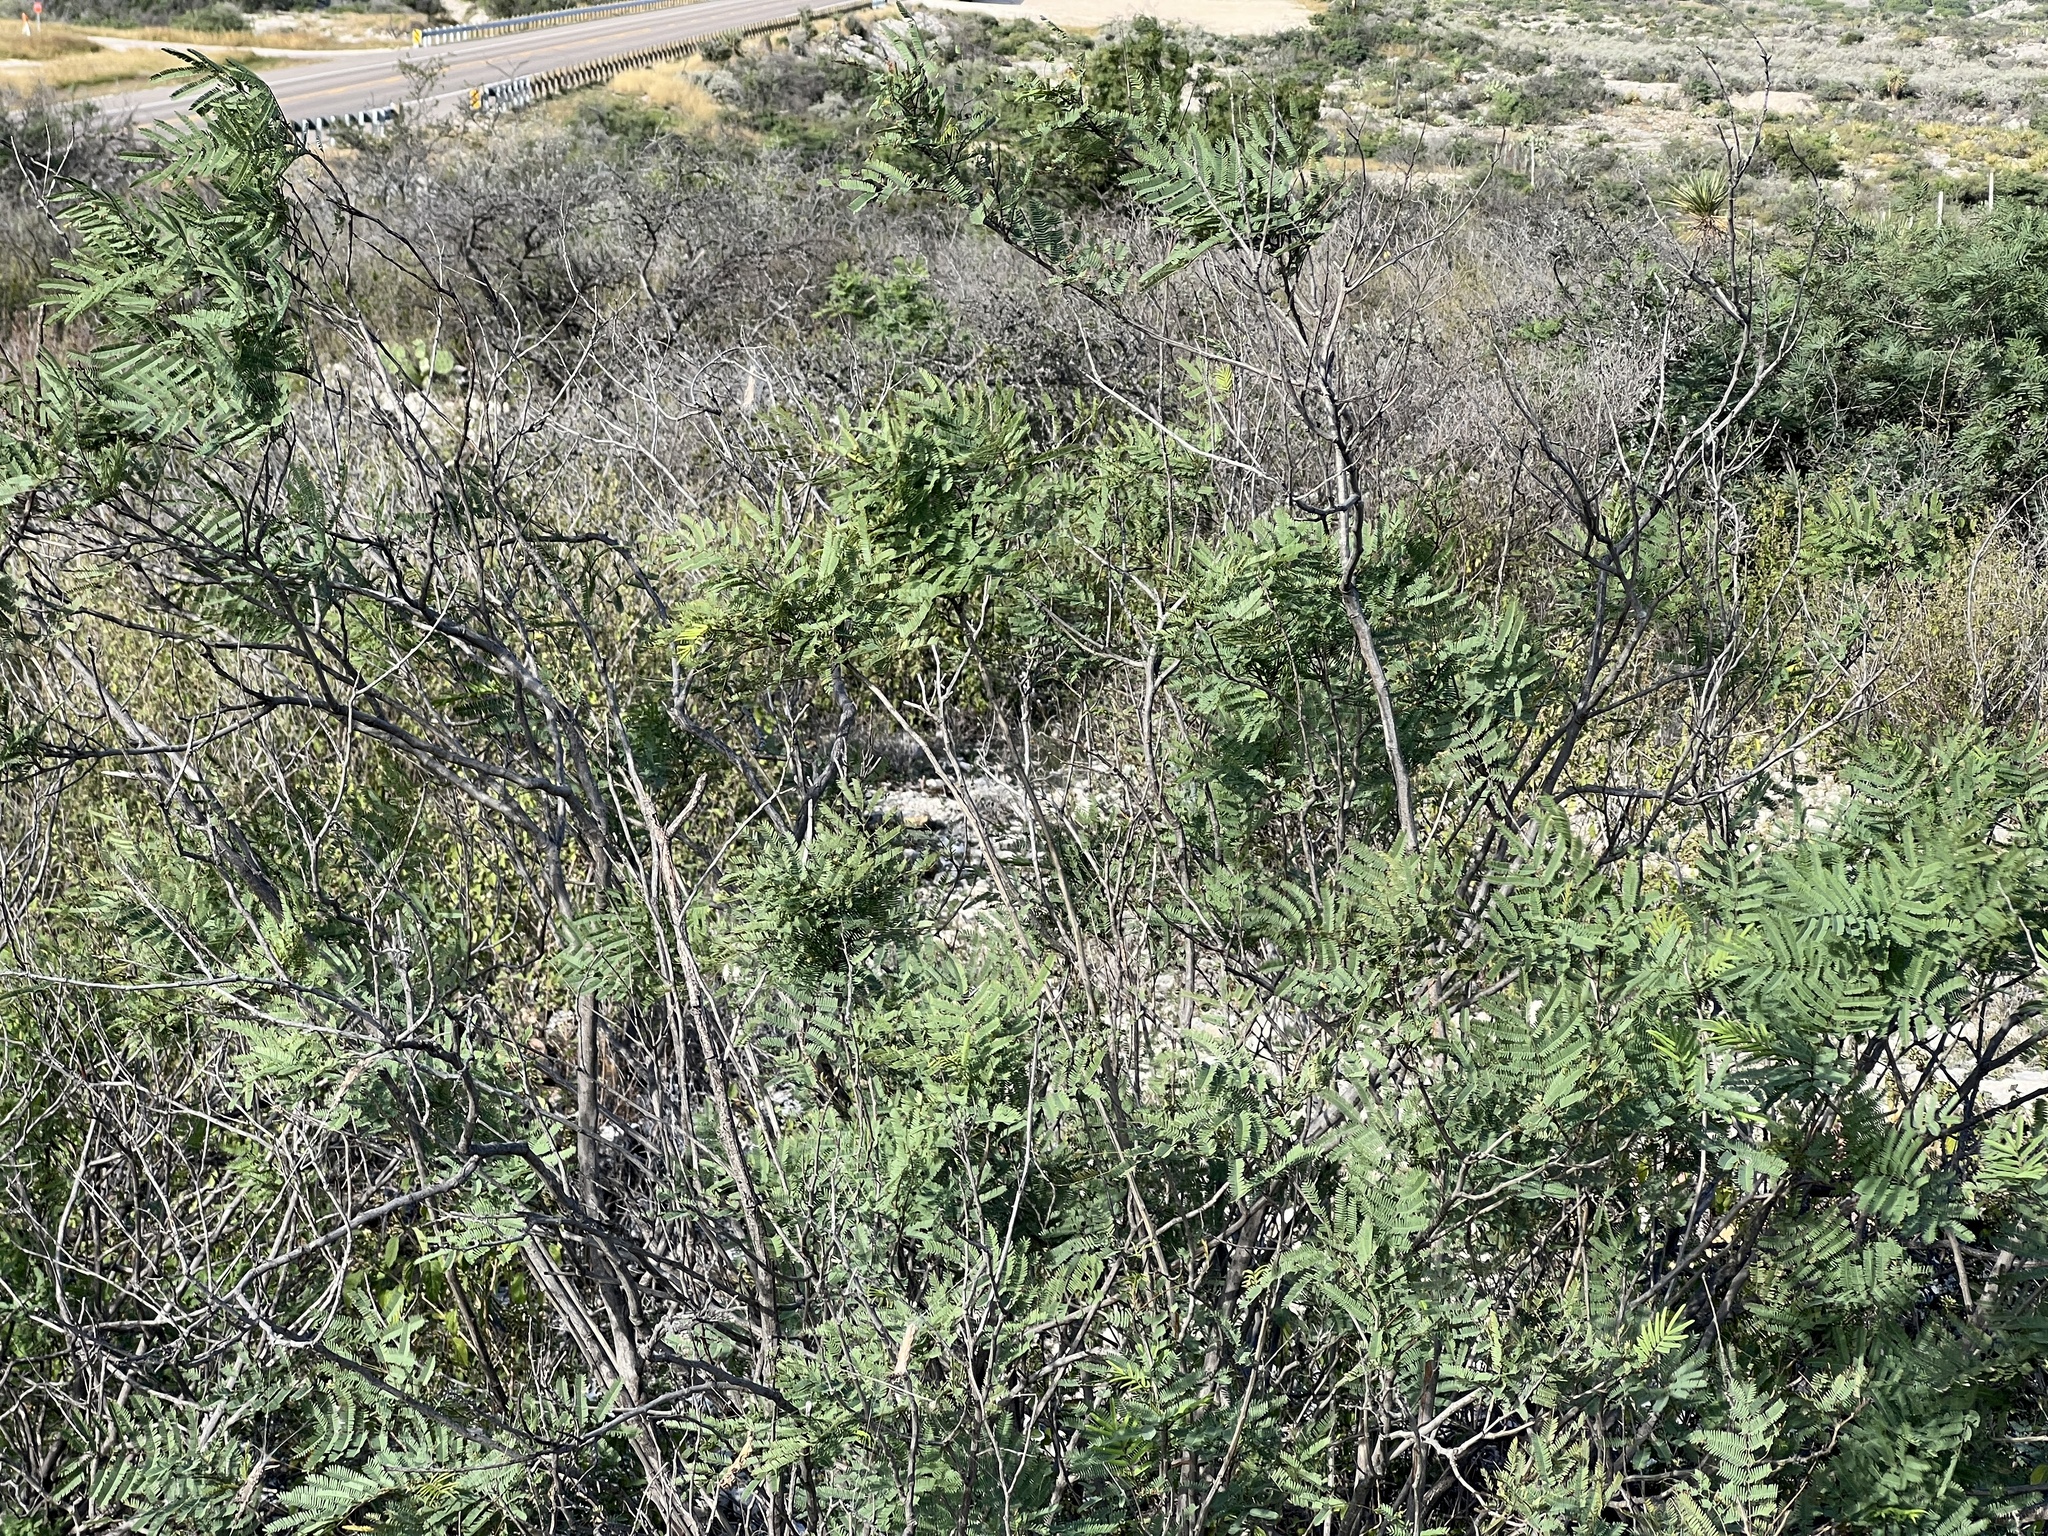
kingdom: Plantae
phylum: Tracheophyta
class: Magnoliopsida
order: Fabales
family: Fabaceae
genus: Senegalia
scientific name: Senegalia berlandieri
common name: Berlandier acacia
